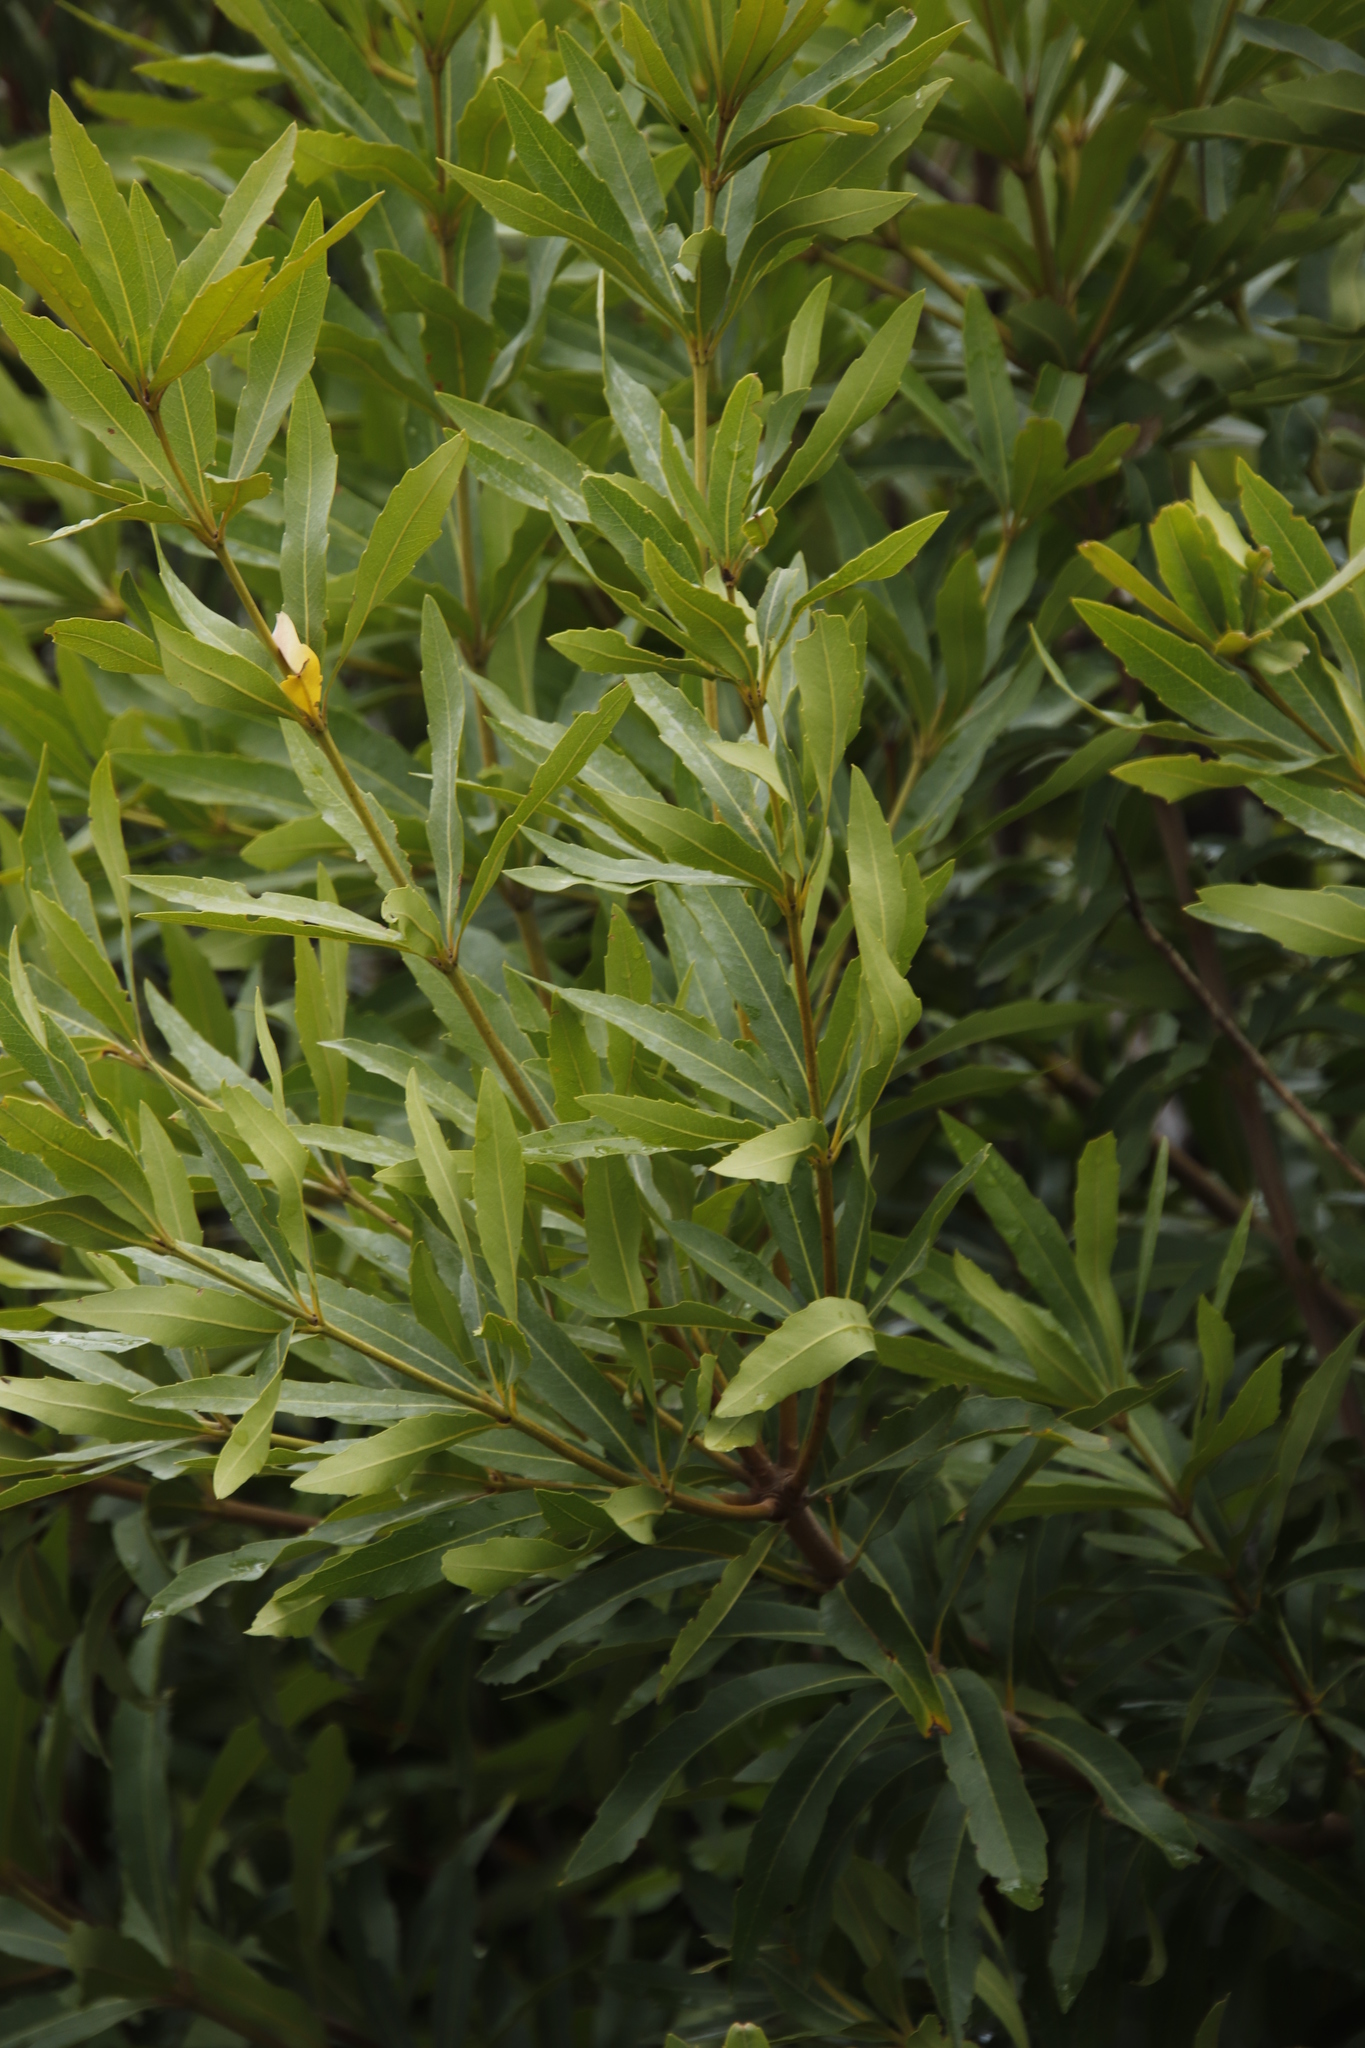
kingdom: Plantae
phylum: Tracheophyta
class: Magnoliopsida
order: Proteales
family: Proteaceae
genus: Brabejum
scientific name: Brabejum stellatifolium
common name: Wild almond
